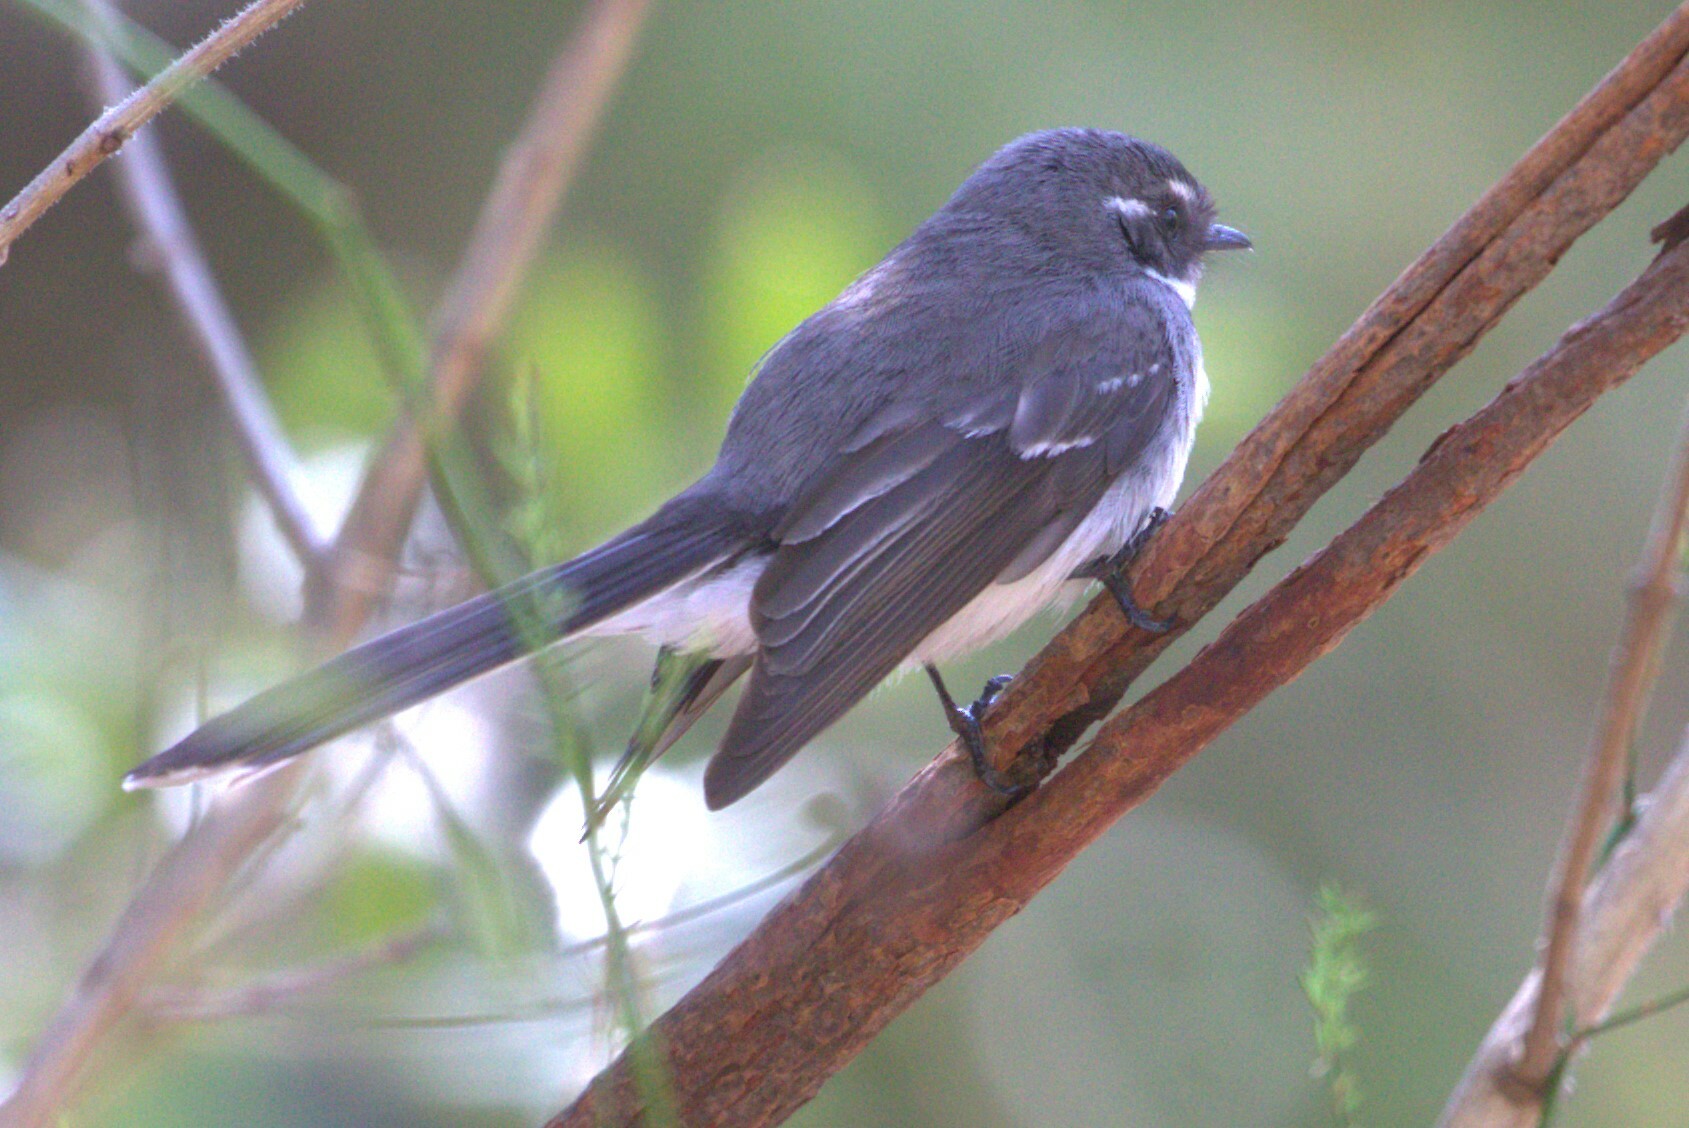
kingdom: Animalia
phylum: Chordata
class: Aves
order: Passeriformes
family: Rhipiduridae
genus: Rhipidura
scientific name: Rhipidura albiscapa
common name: Grey fantail
